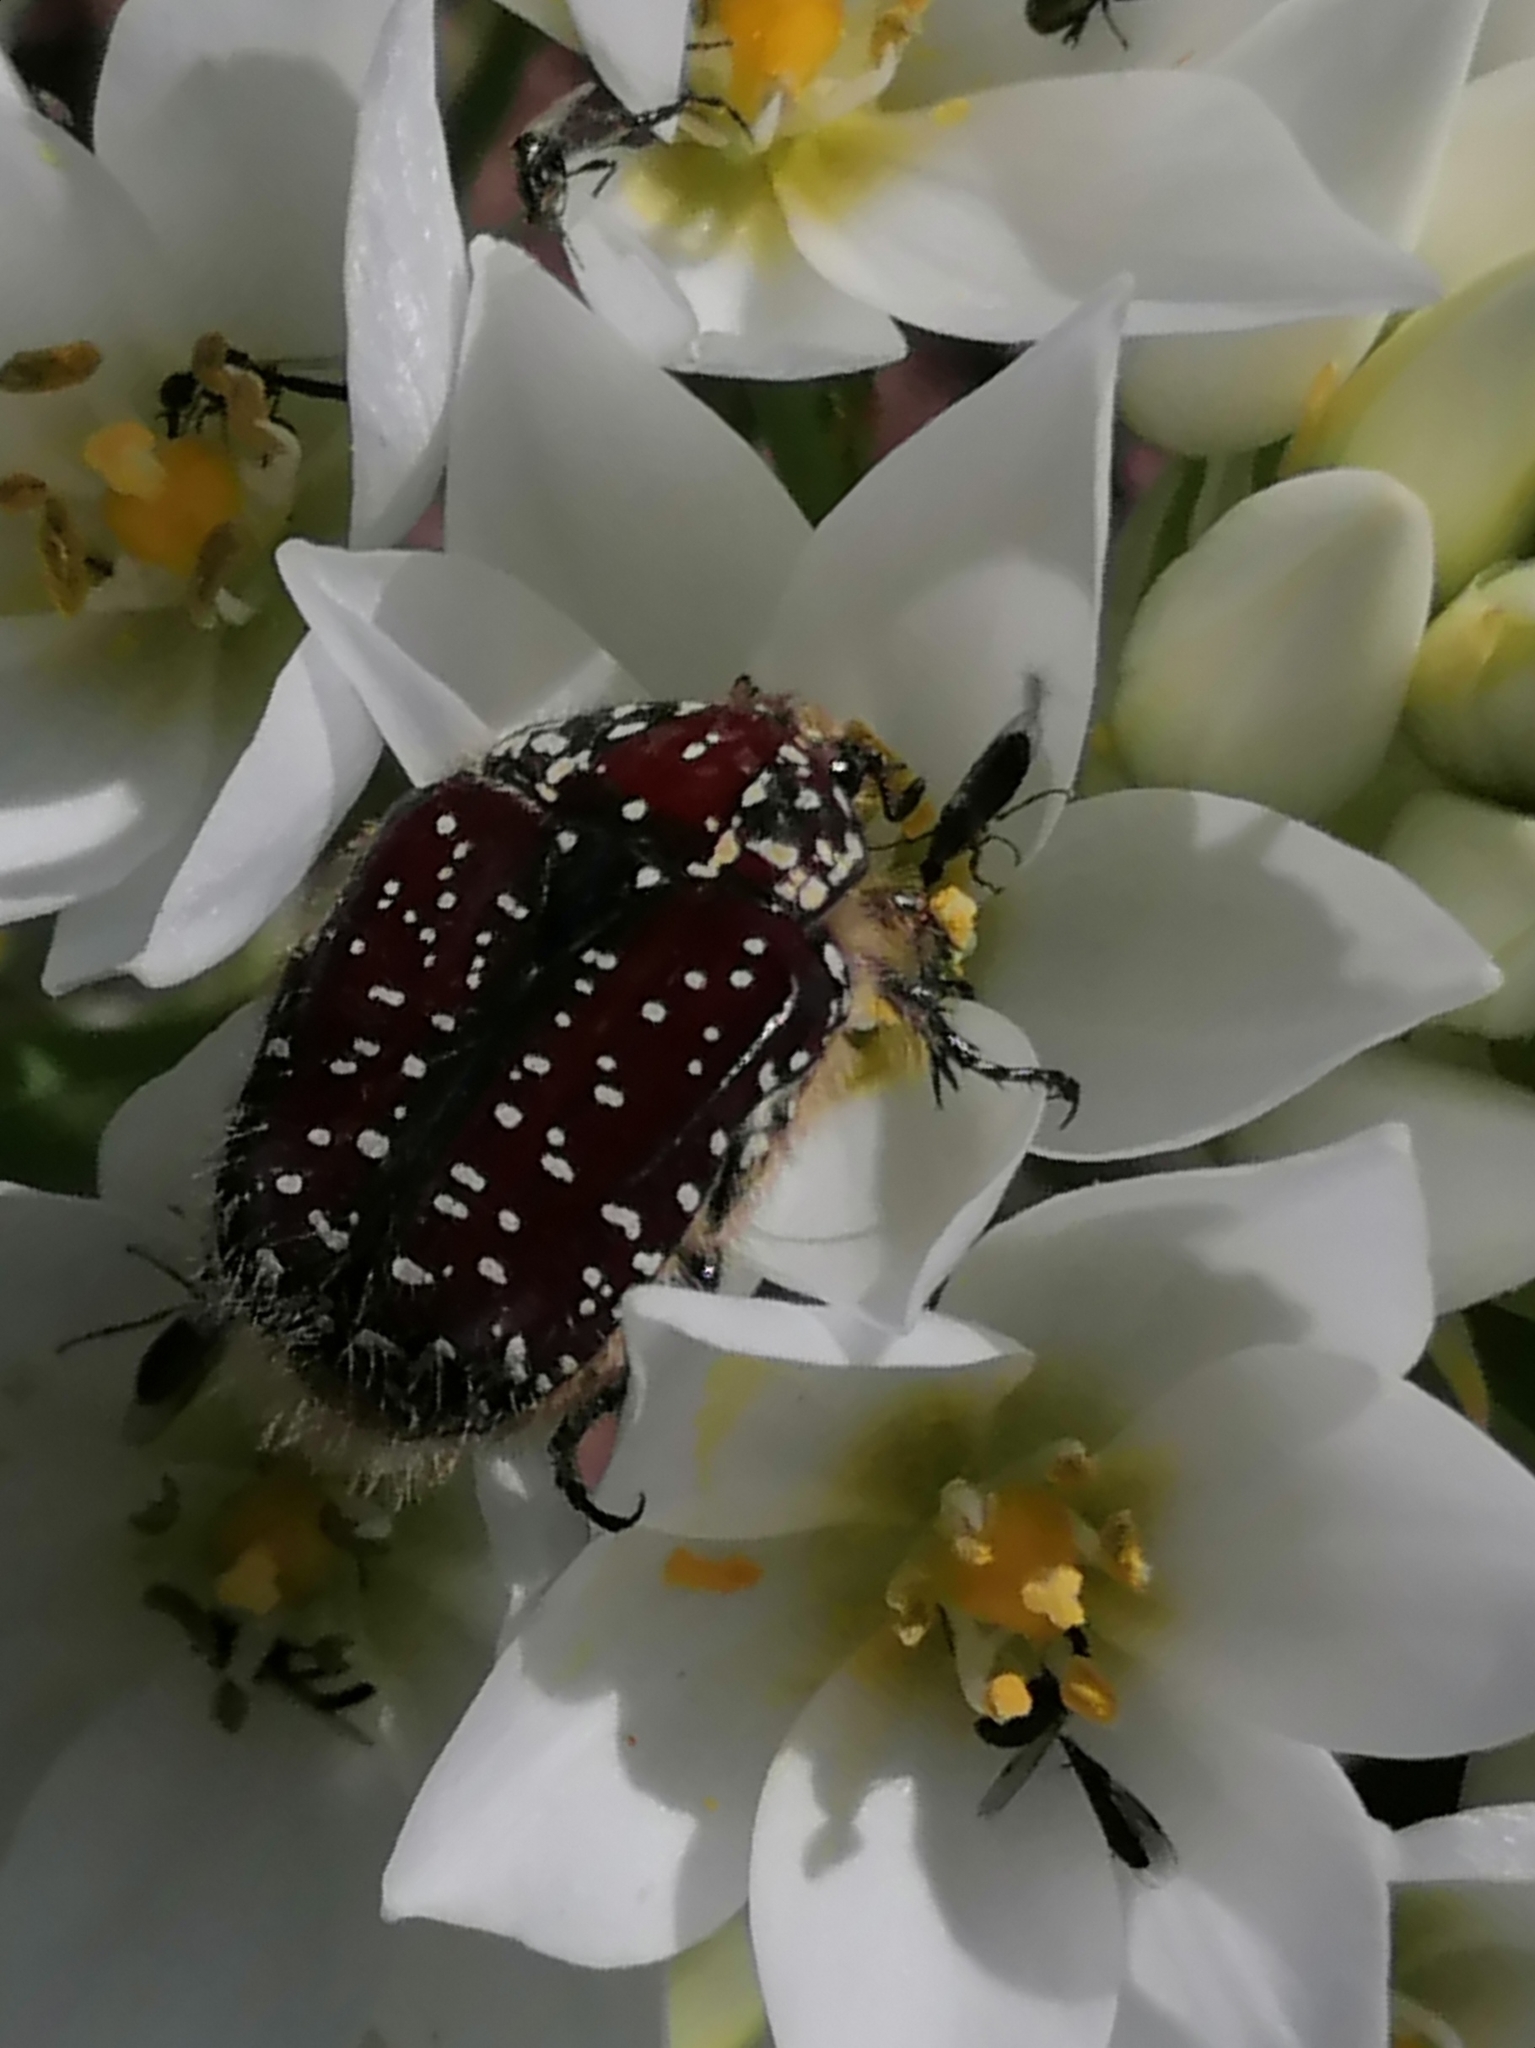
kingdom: Animalia
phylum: Arthropoda
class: Insecta
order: Coleoptera
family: Scarabaeidae
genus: Trichostetha
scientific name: Trichostetha capensis
